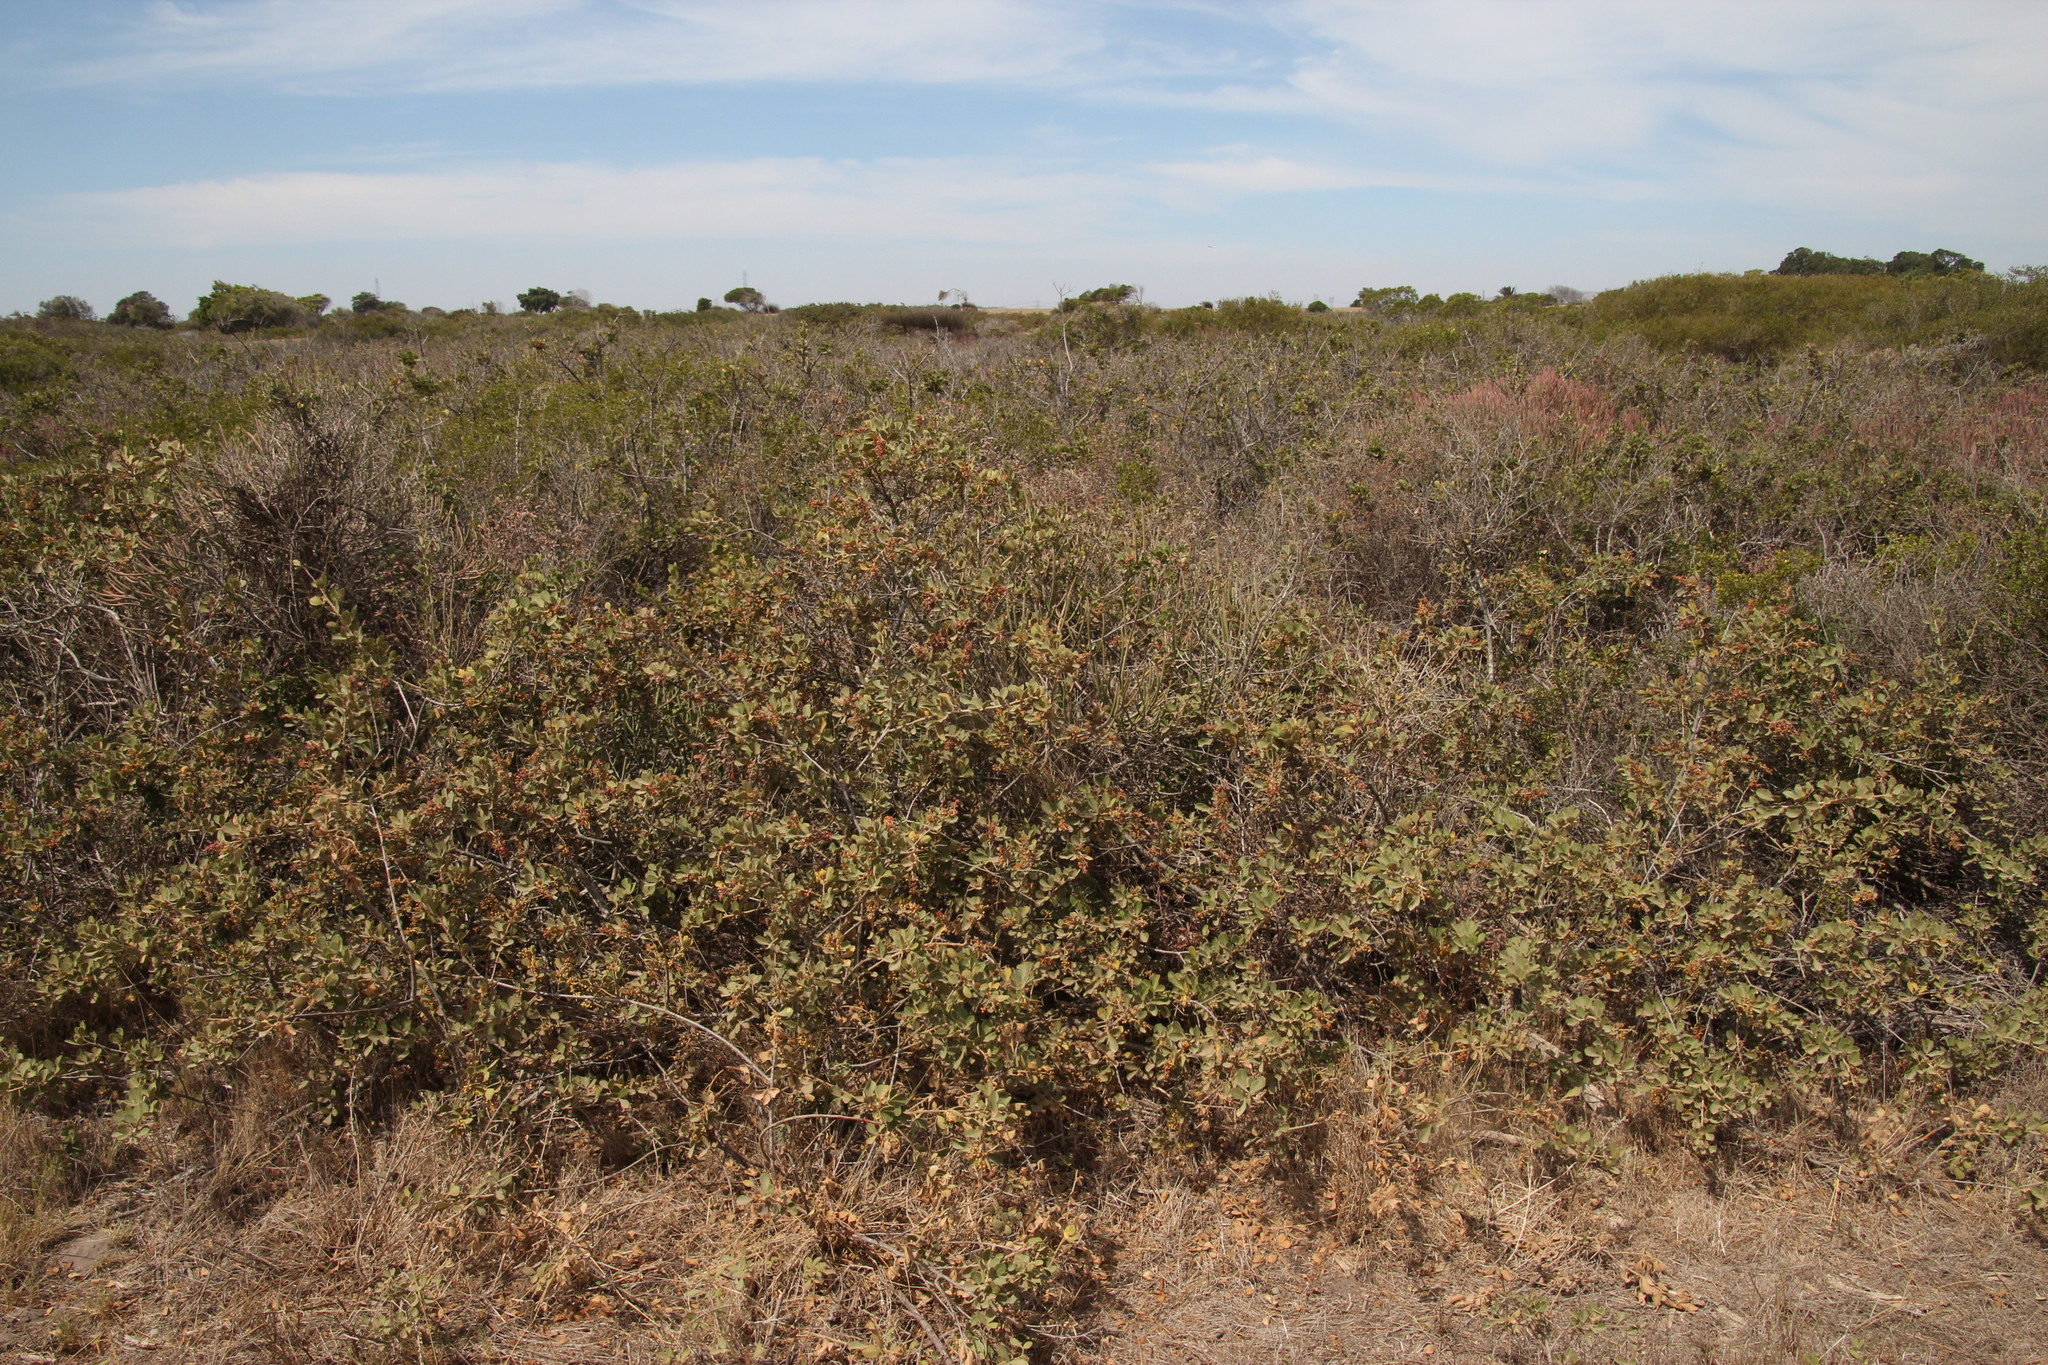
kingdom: Plantae
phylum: Tracheophyta
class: Magnoliopsida
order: Sapindales
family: Anacardiaceae
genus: Searsia
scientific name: Searsia laevigata
